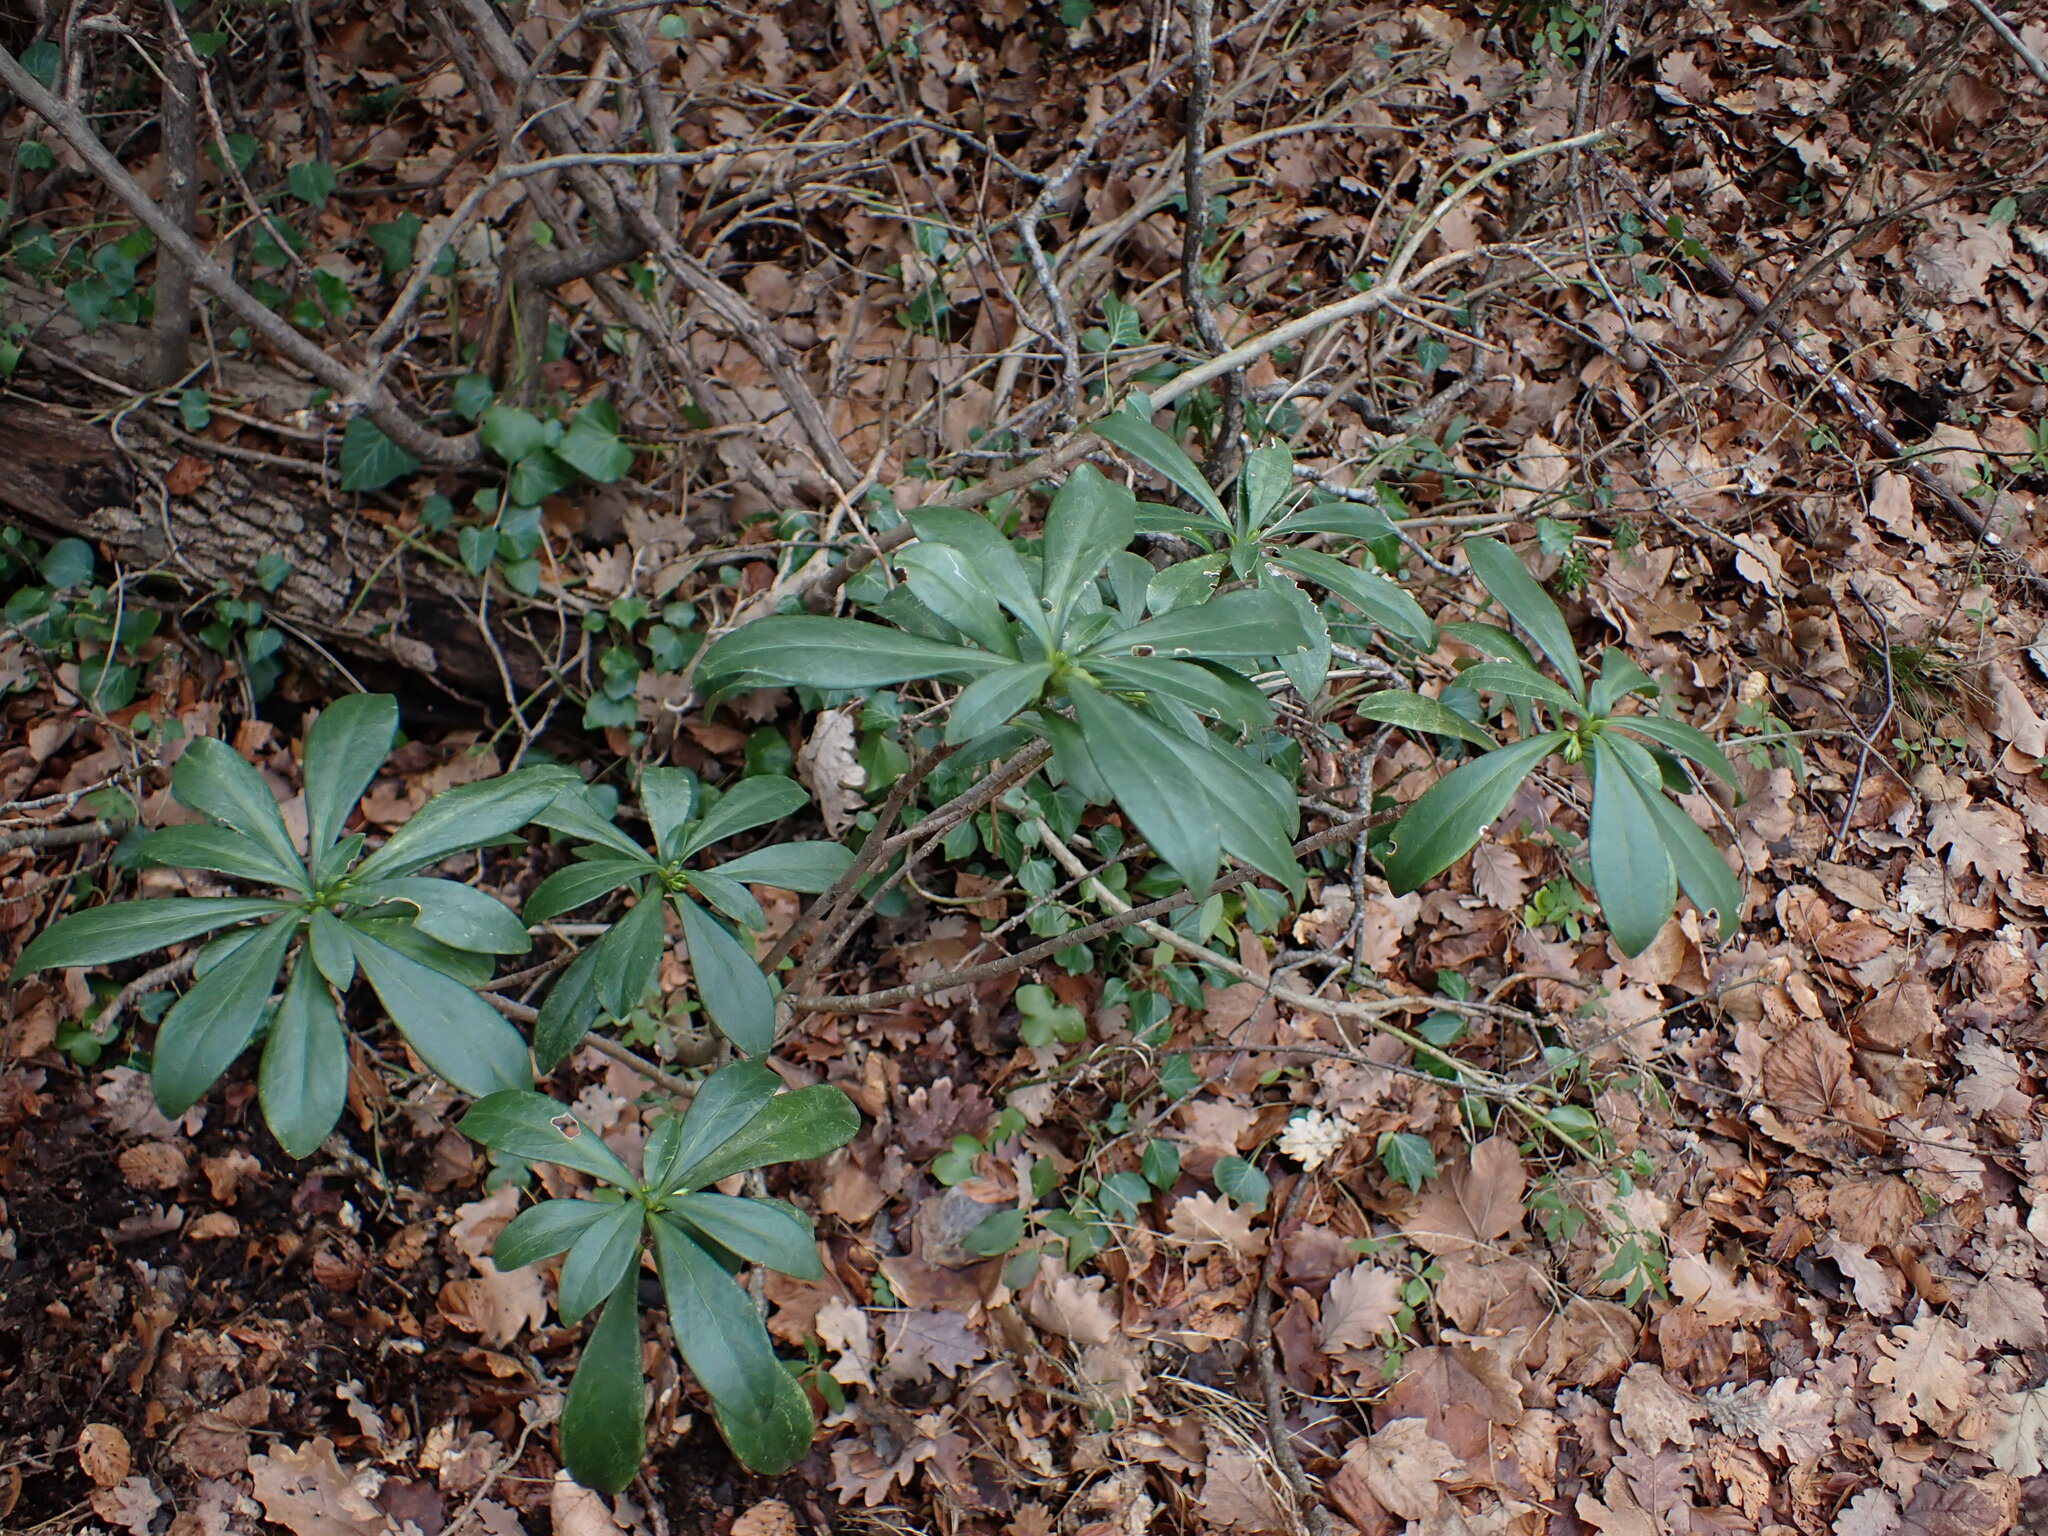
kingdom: Plantae
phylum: Tracheophyta
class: Magnoliopsida
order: Malvales
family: Thymelaeaceae
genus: Daphne
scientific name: Daphne laureola
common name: Spurge-laurel
